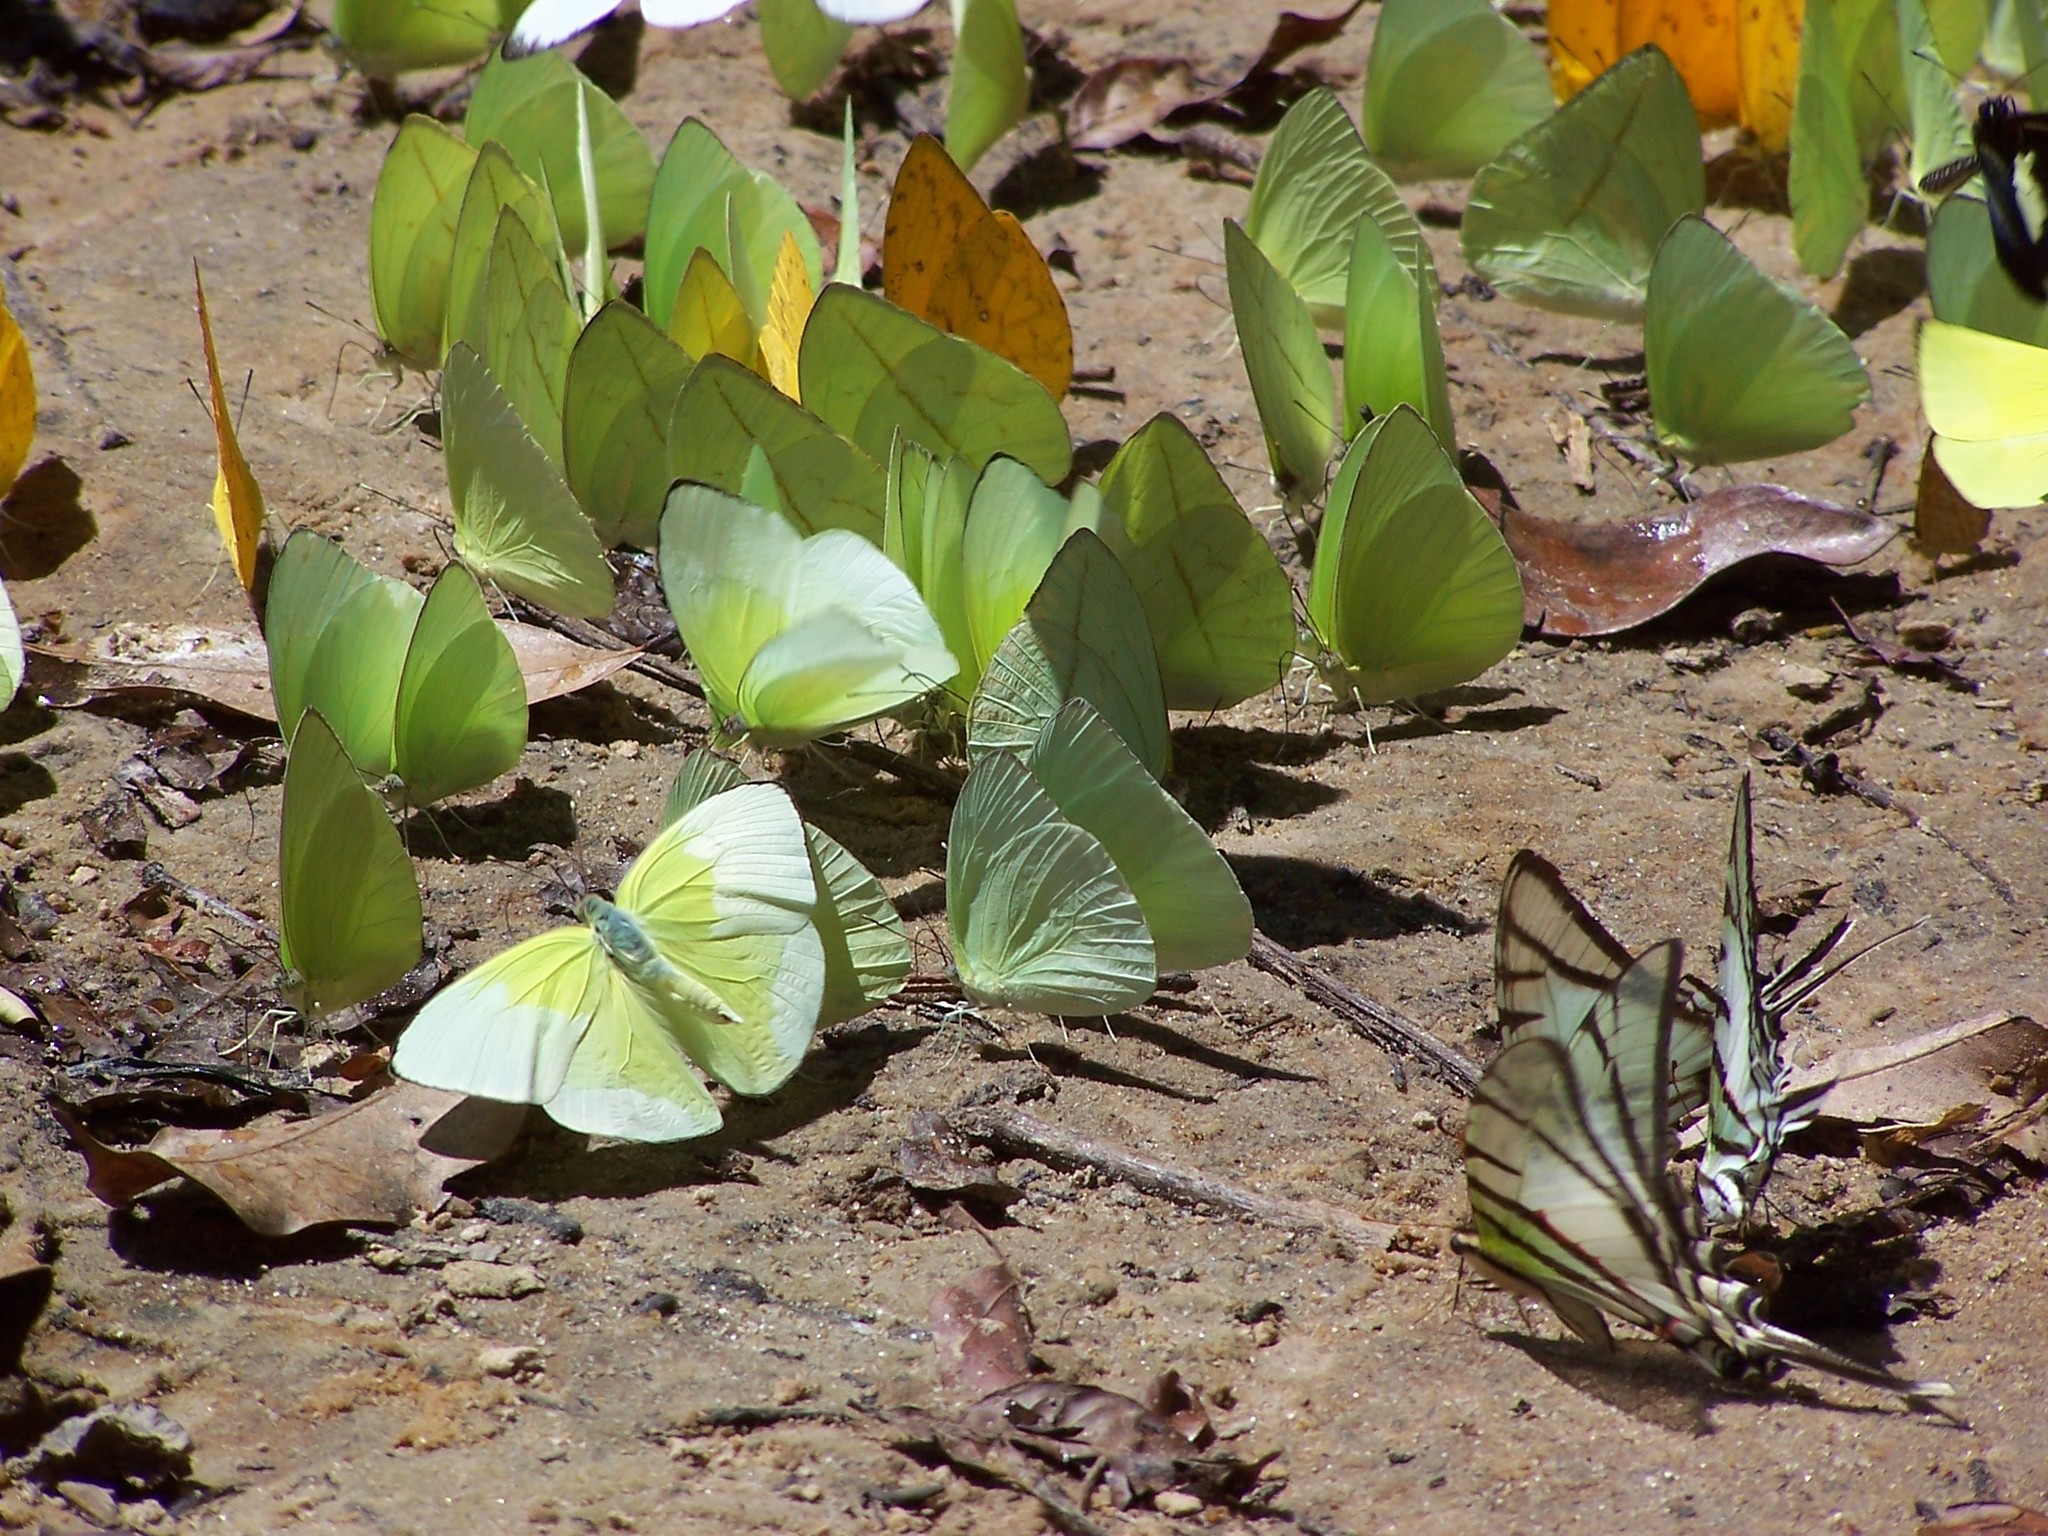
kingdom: Animalia
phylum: Arthropoda
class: Insecta
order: Lepidoptera
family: Pieridae
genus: Aphrissa
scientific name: Aphrissa statira
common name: Statira sulphur
